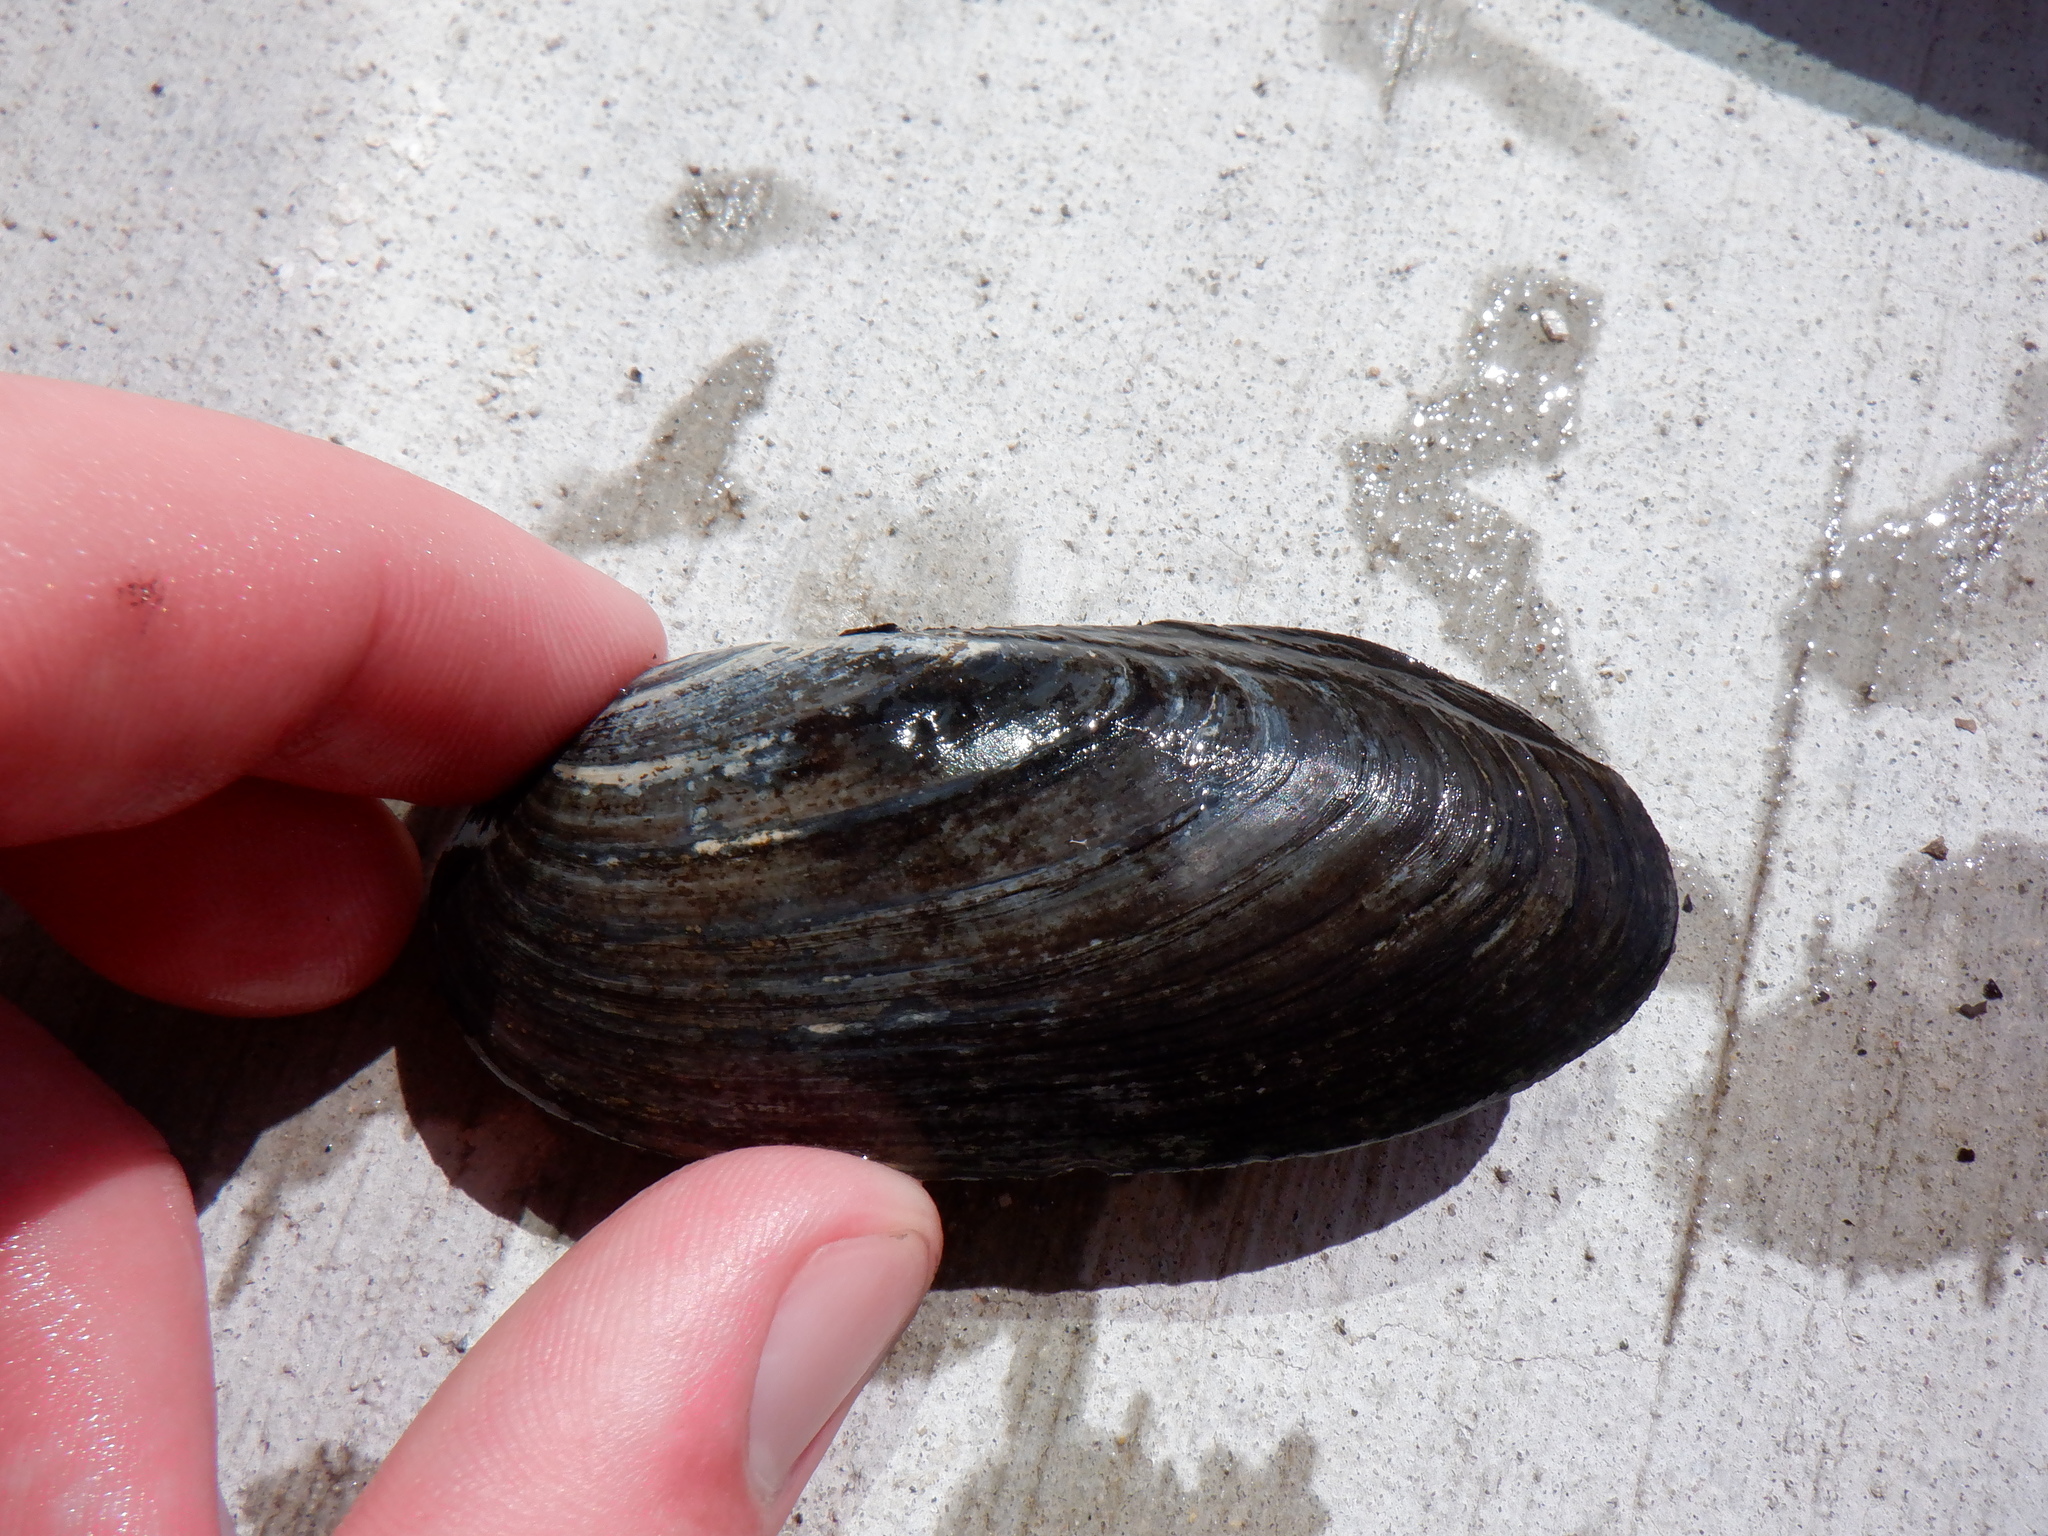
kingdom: Animalia
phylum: Mollusca
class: Bivalvia
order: Unionida
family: Unionidae
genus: Eurynia
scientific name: Eurynia dilatata
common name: Spike
